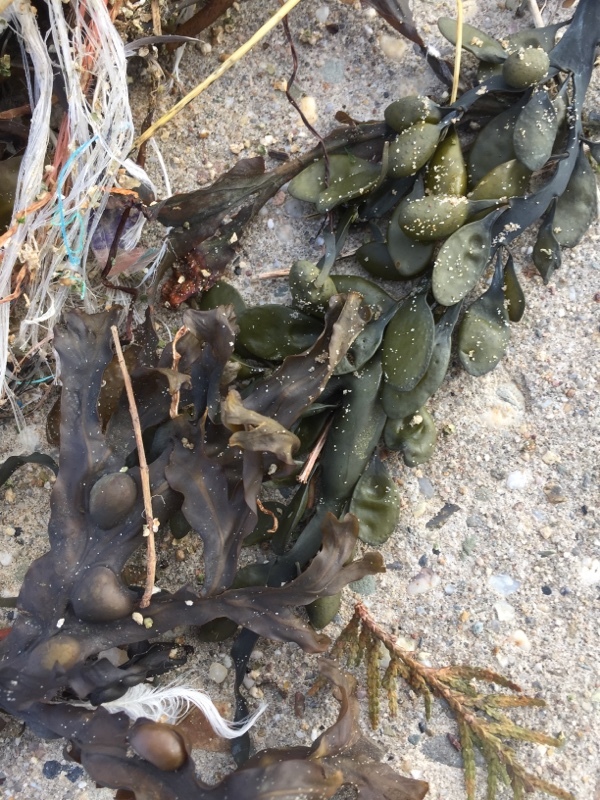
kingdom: Chromista
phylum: Ochrophyta
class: Phaeophyceae
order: Fucales
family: Fucaceae
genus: Fucus
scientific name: Fucus vesiculosus
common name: Bladder wrack
